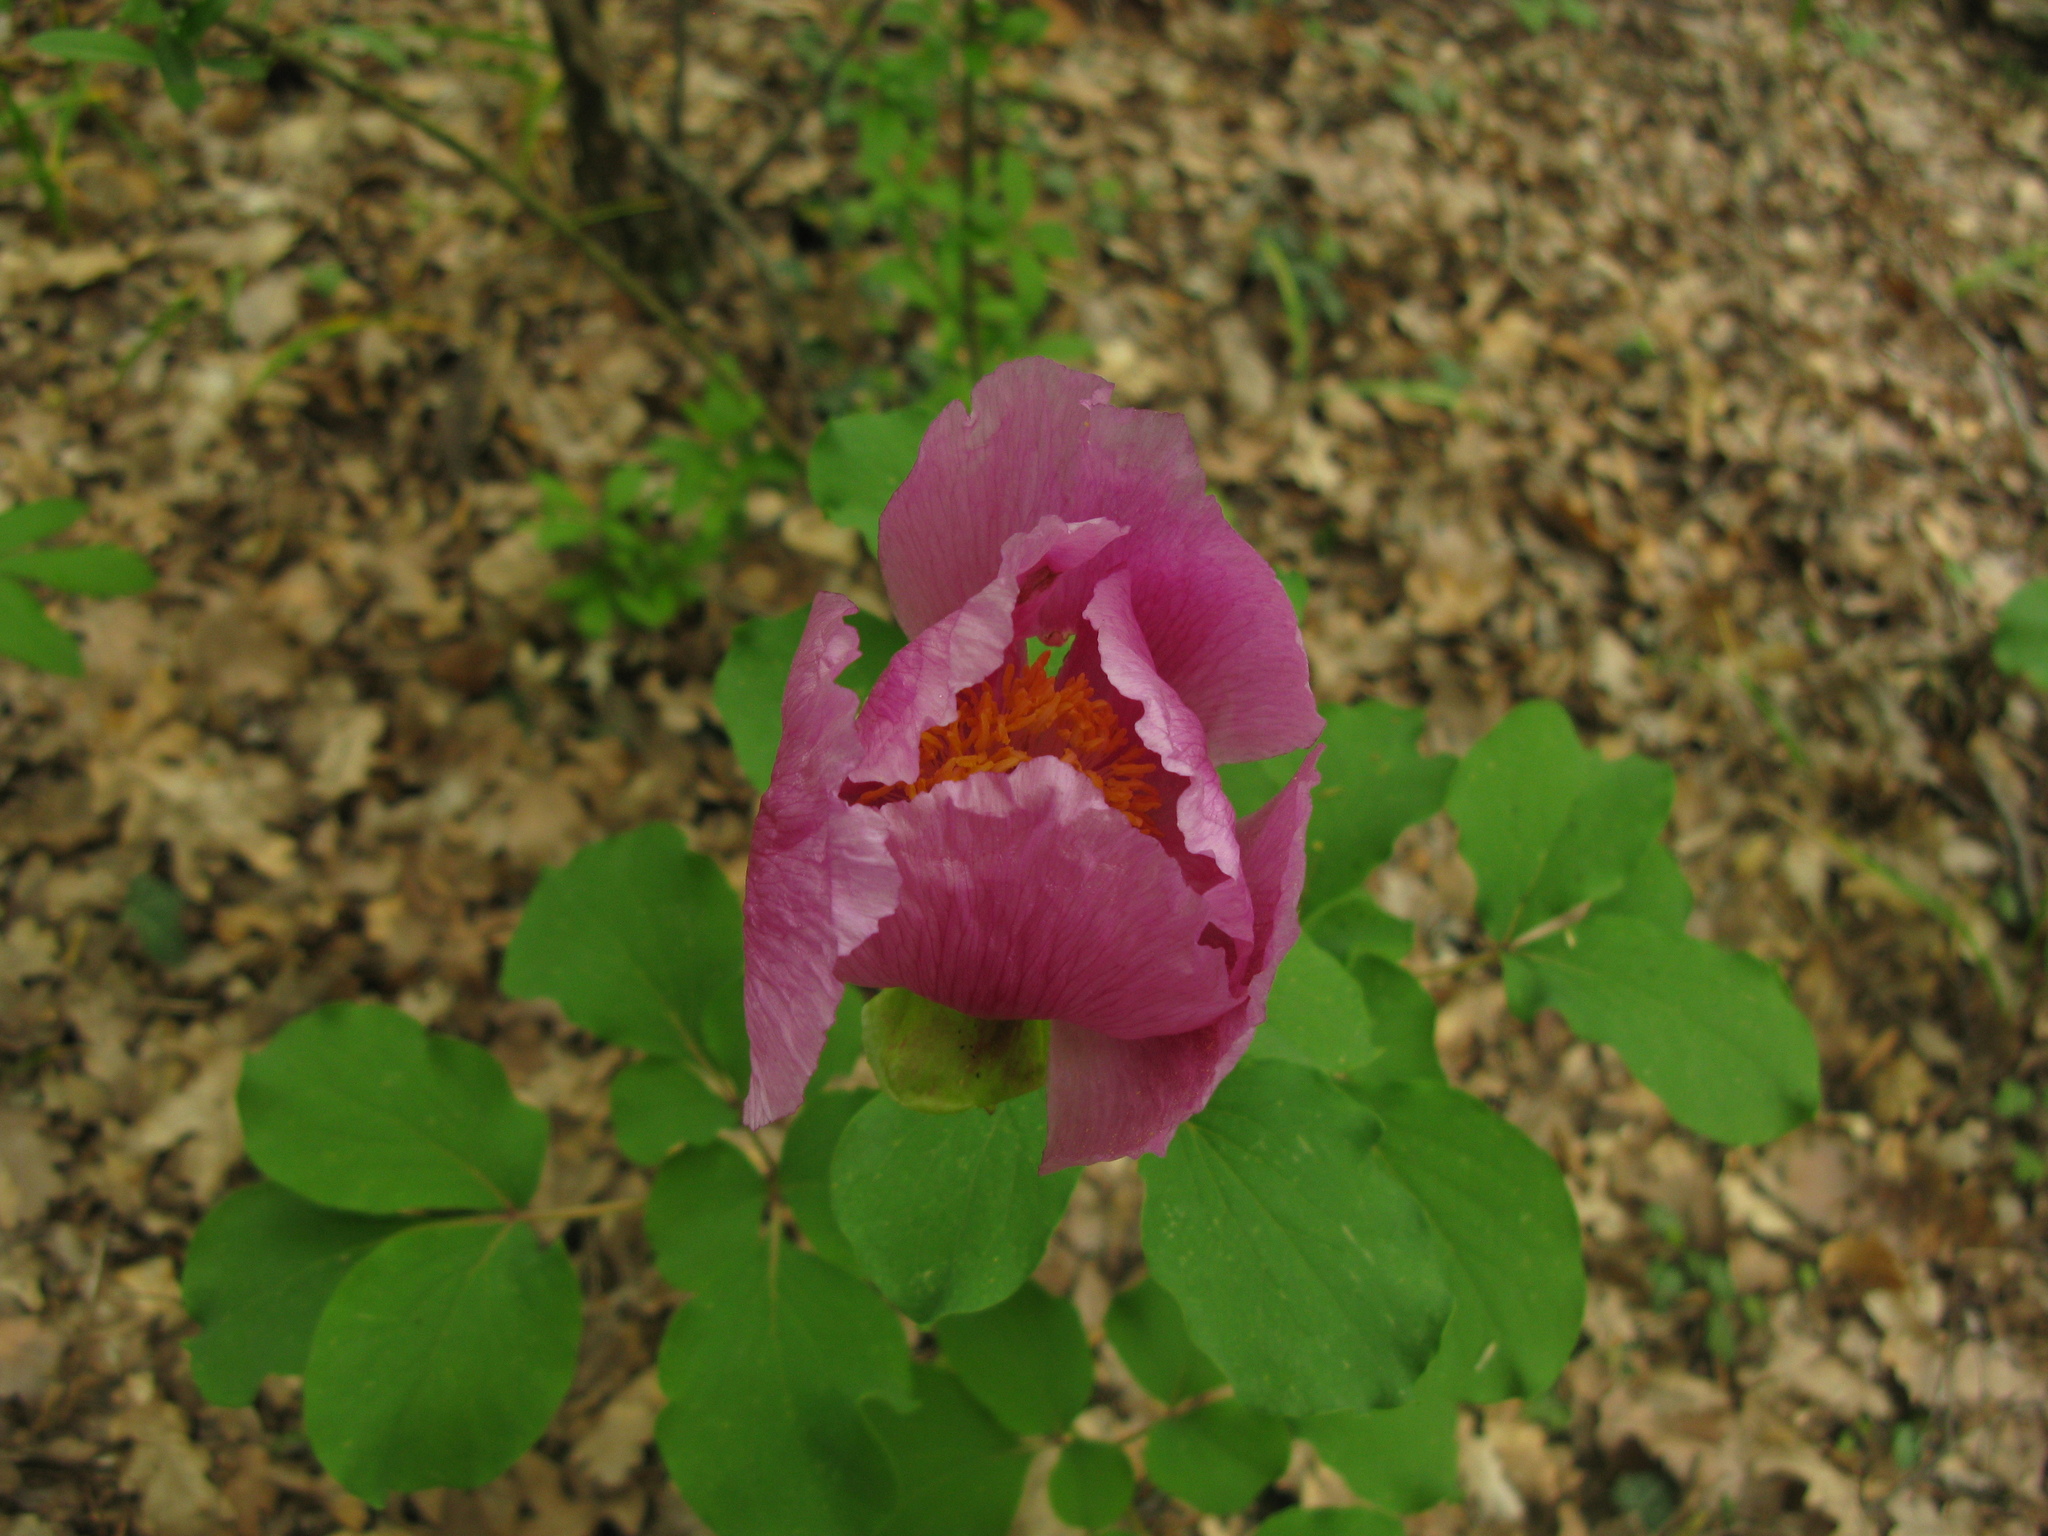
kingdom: Plantae
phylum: Tracheophyta
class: Magnoliopsida
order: Saxifragales
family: Paeoniaceae
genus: Paeonia
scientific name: Paeonia daurica
